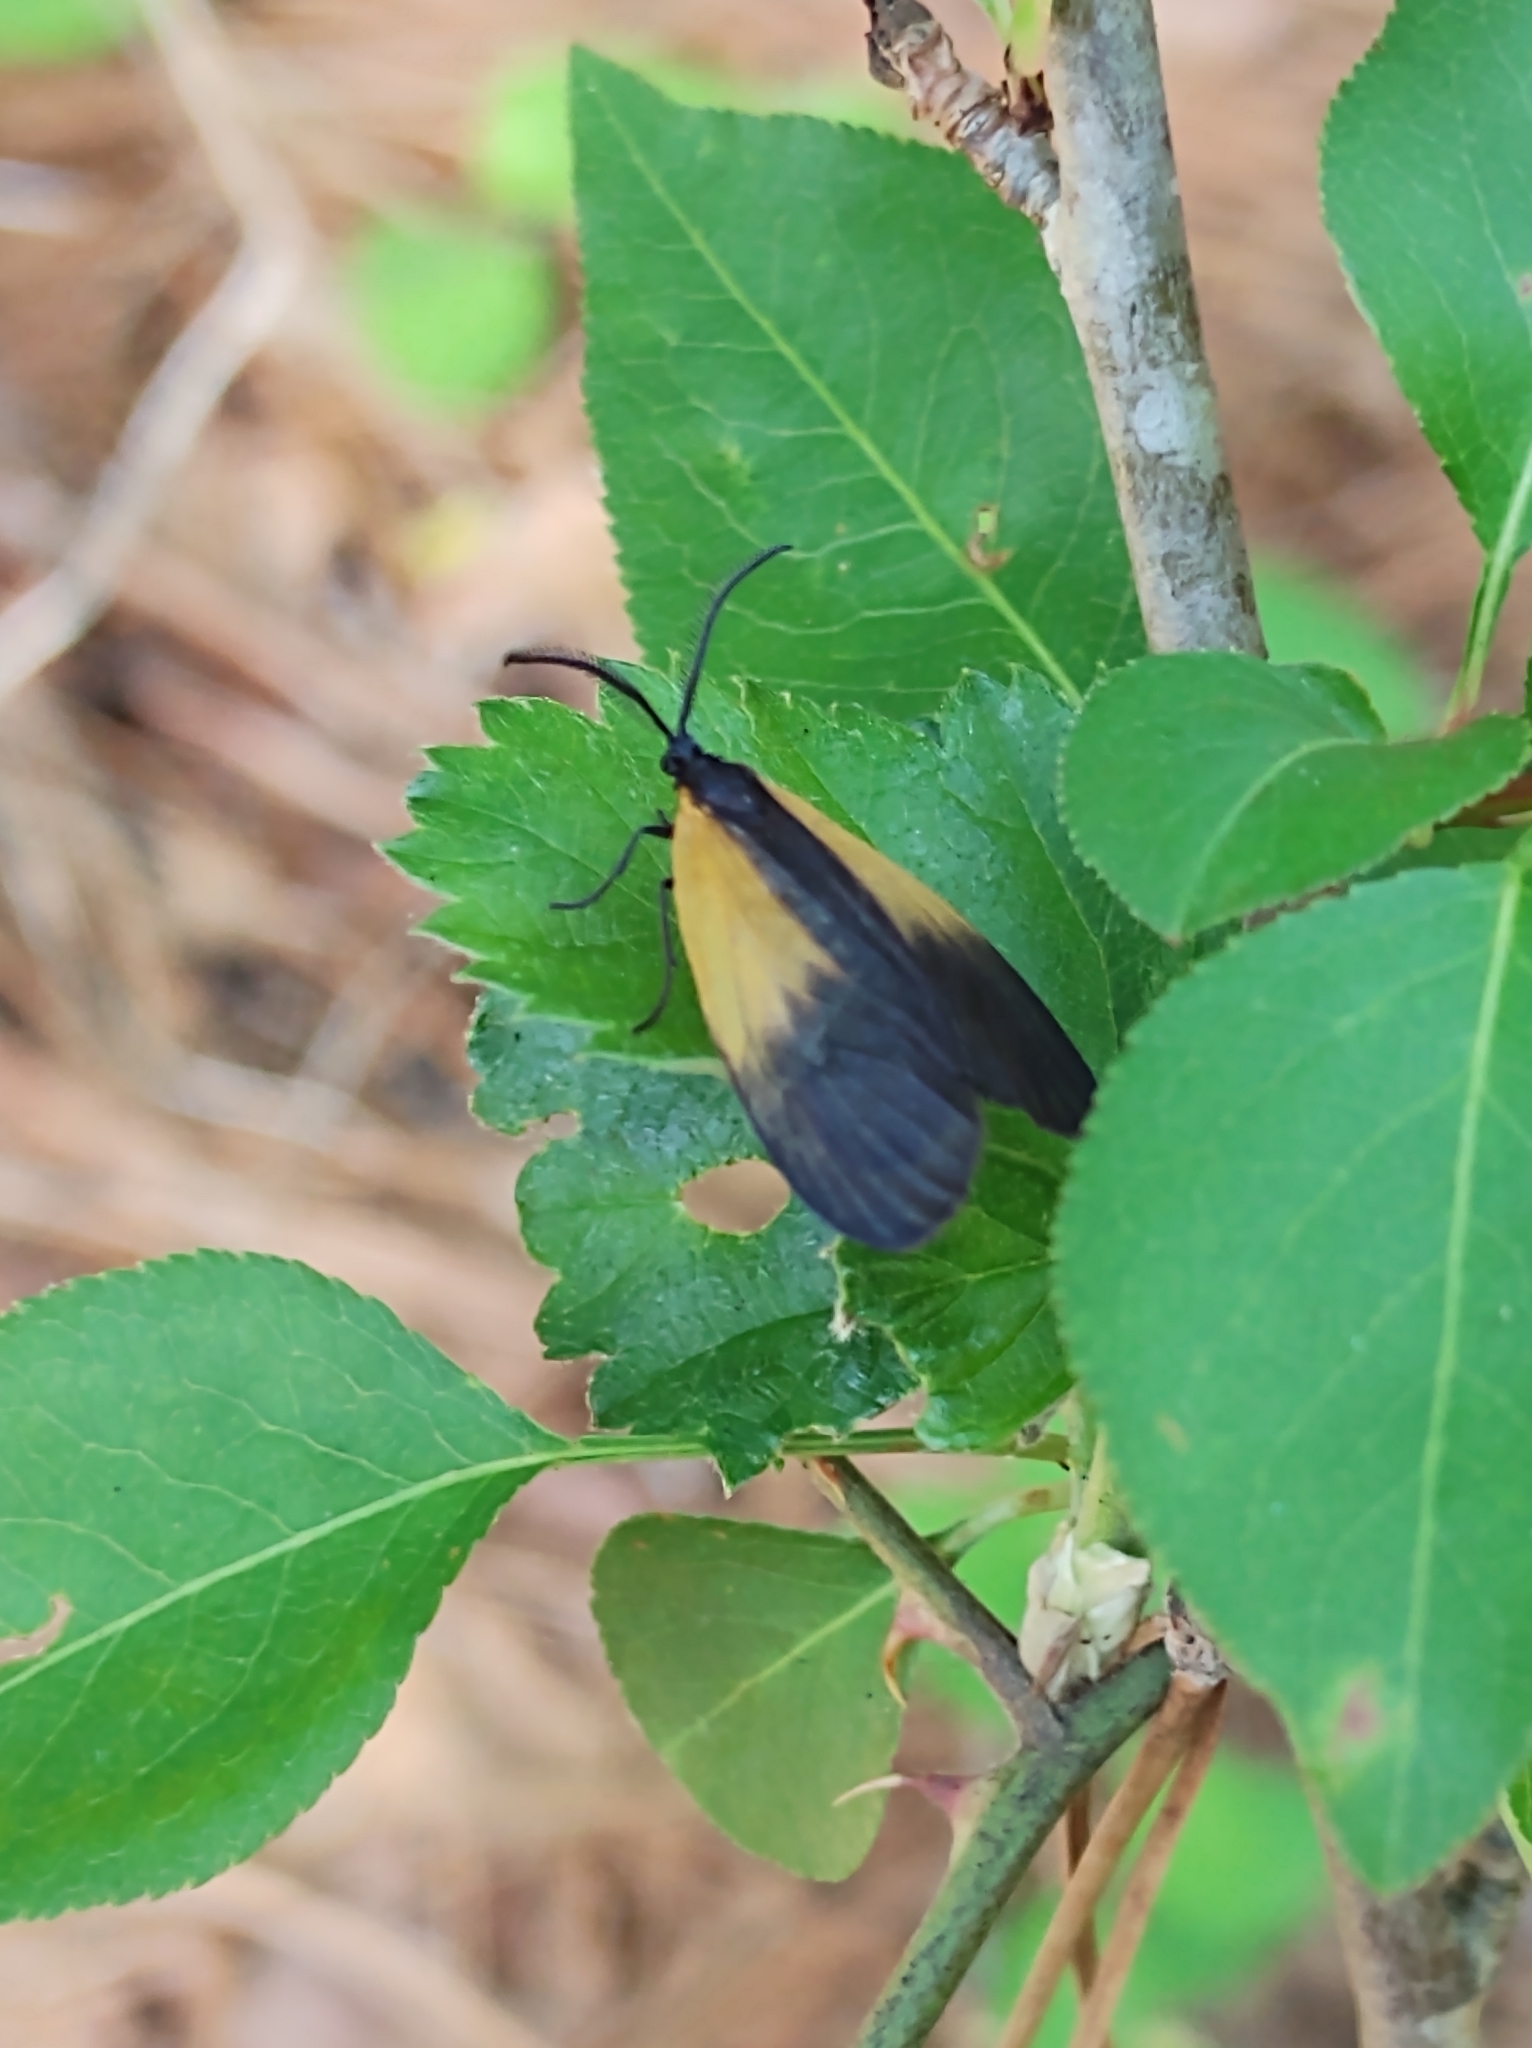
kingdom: Animalia
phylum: Arthropoda
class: Insecta
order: Lepidoptera
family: Zygaenidae
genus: Malthaca
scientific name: Malthaca dimidiata
